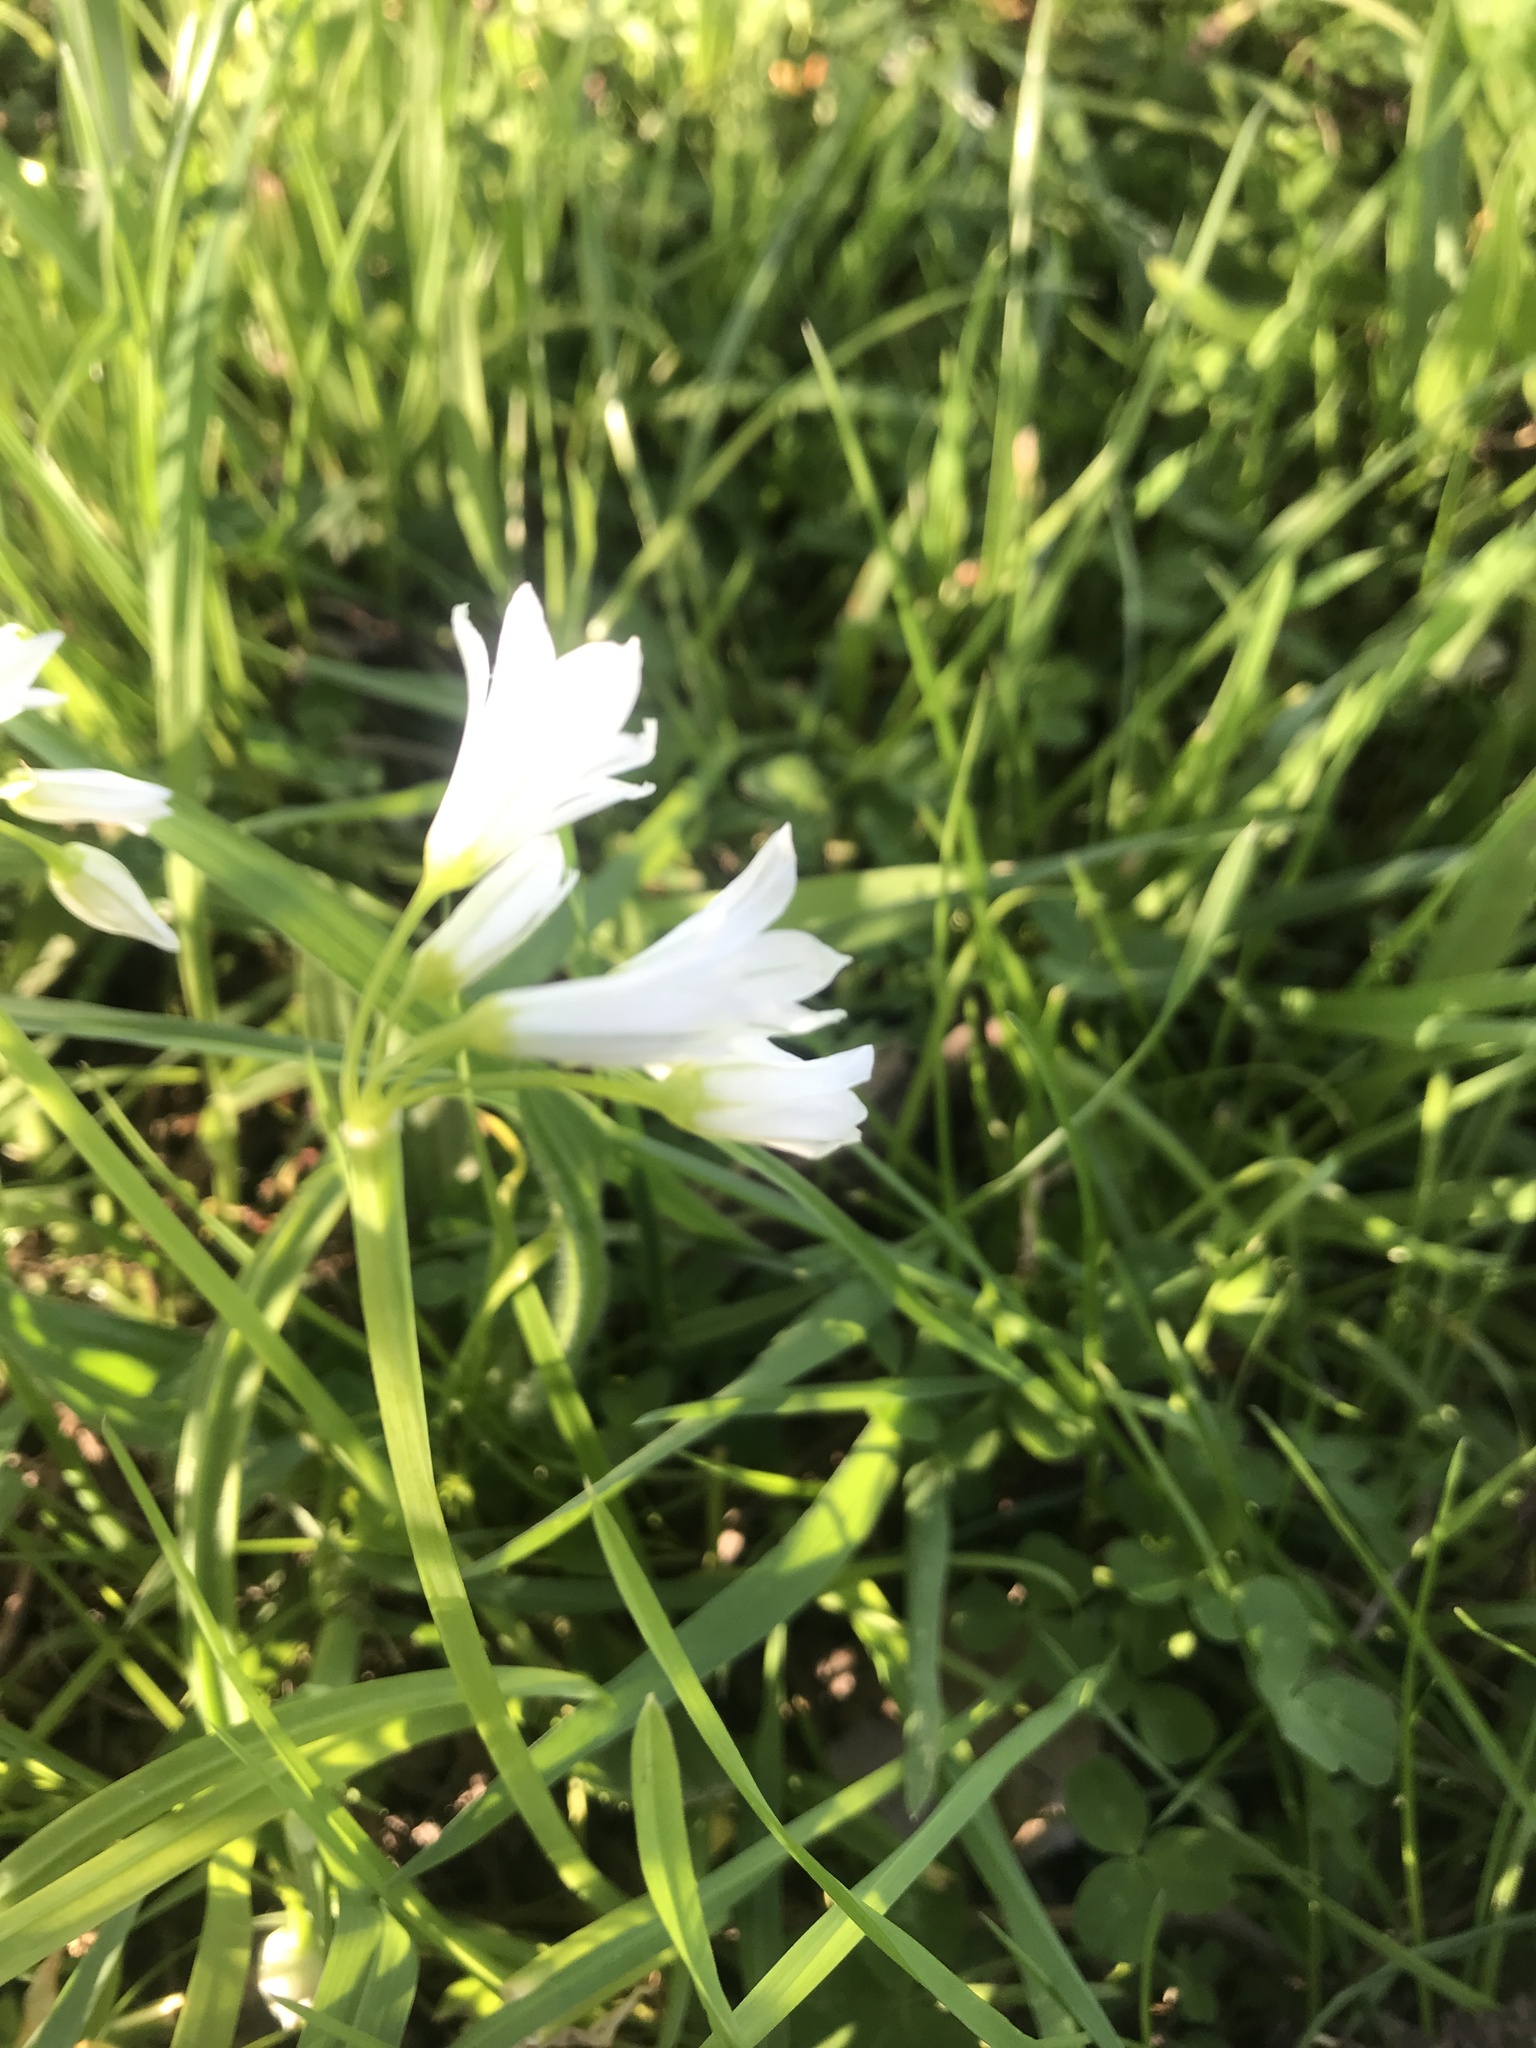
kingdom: Plantae
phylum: Tracheophyta
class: Liliopsida
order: Asparagales
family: Amaryllidaceae
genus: Allium
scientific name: Allium triquetrum
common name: Three-cornered garlic
